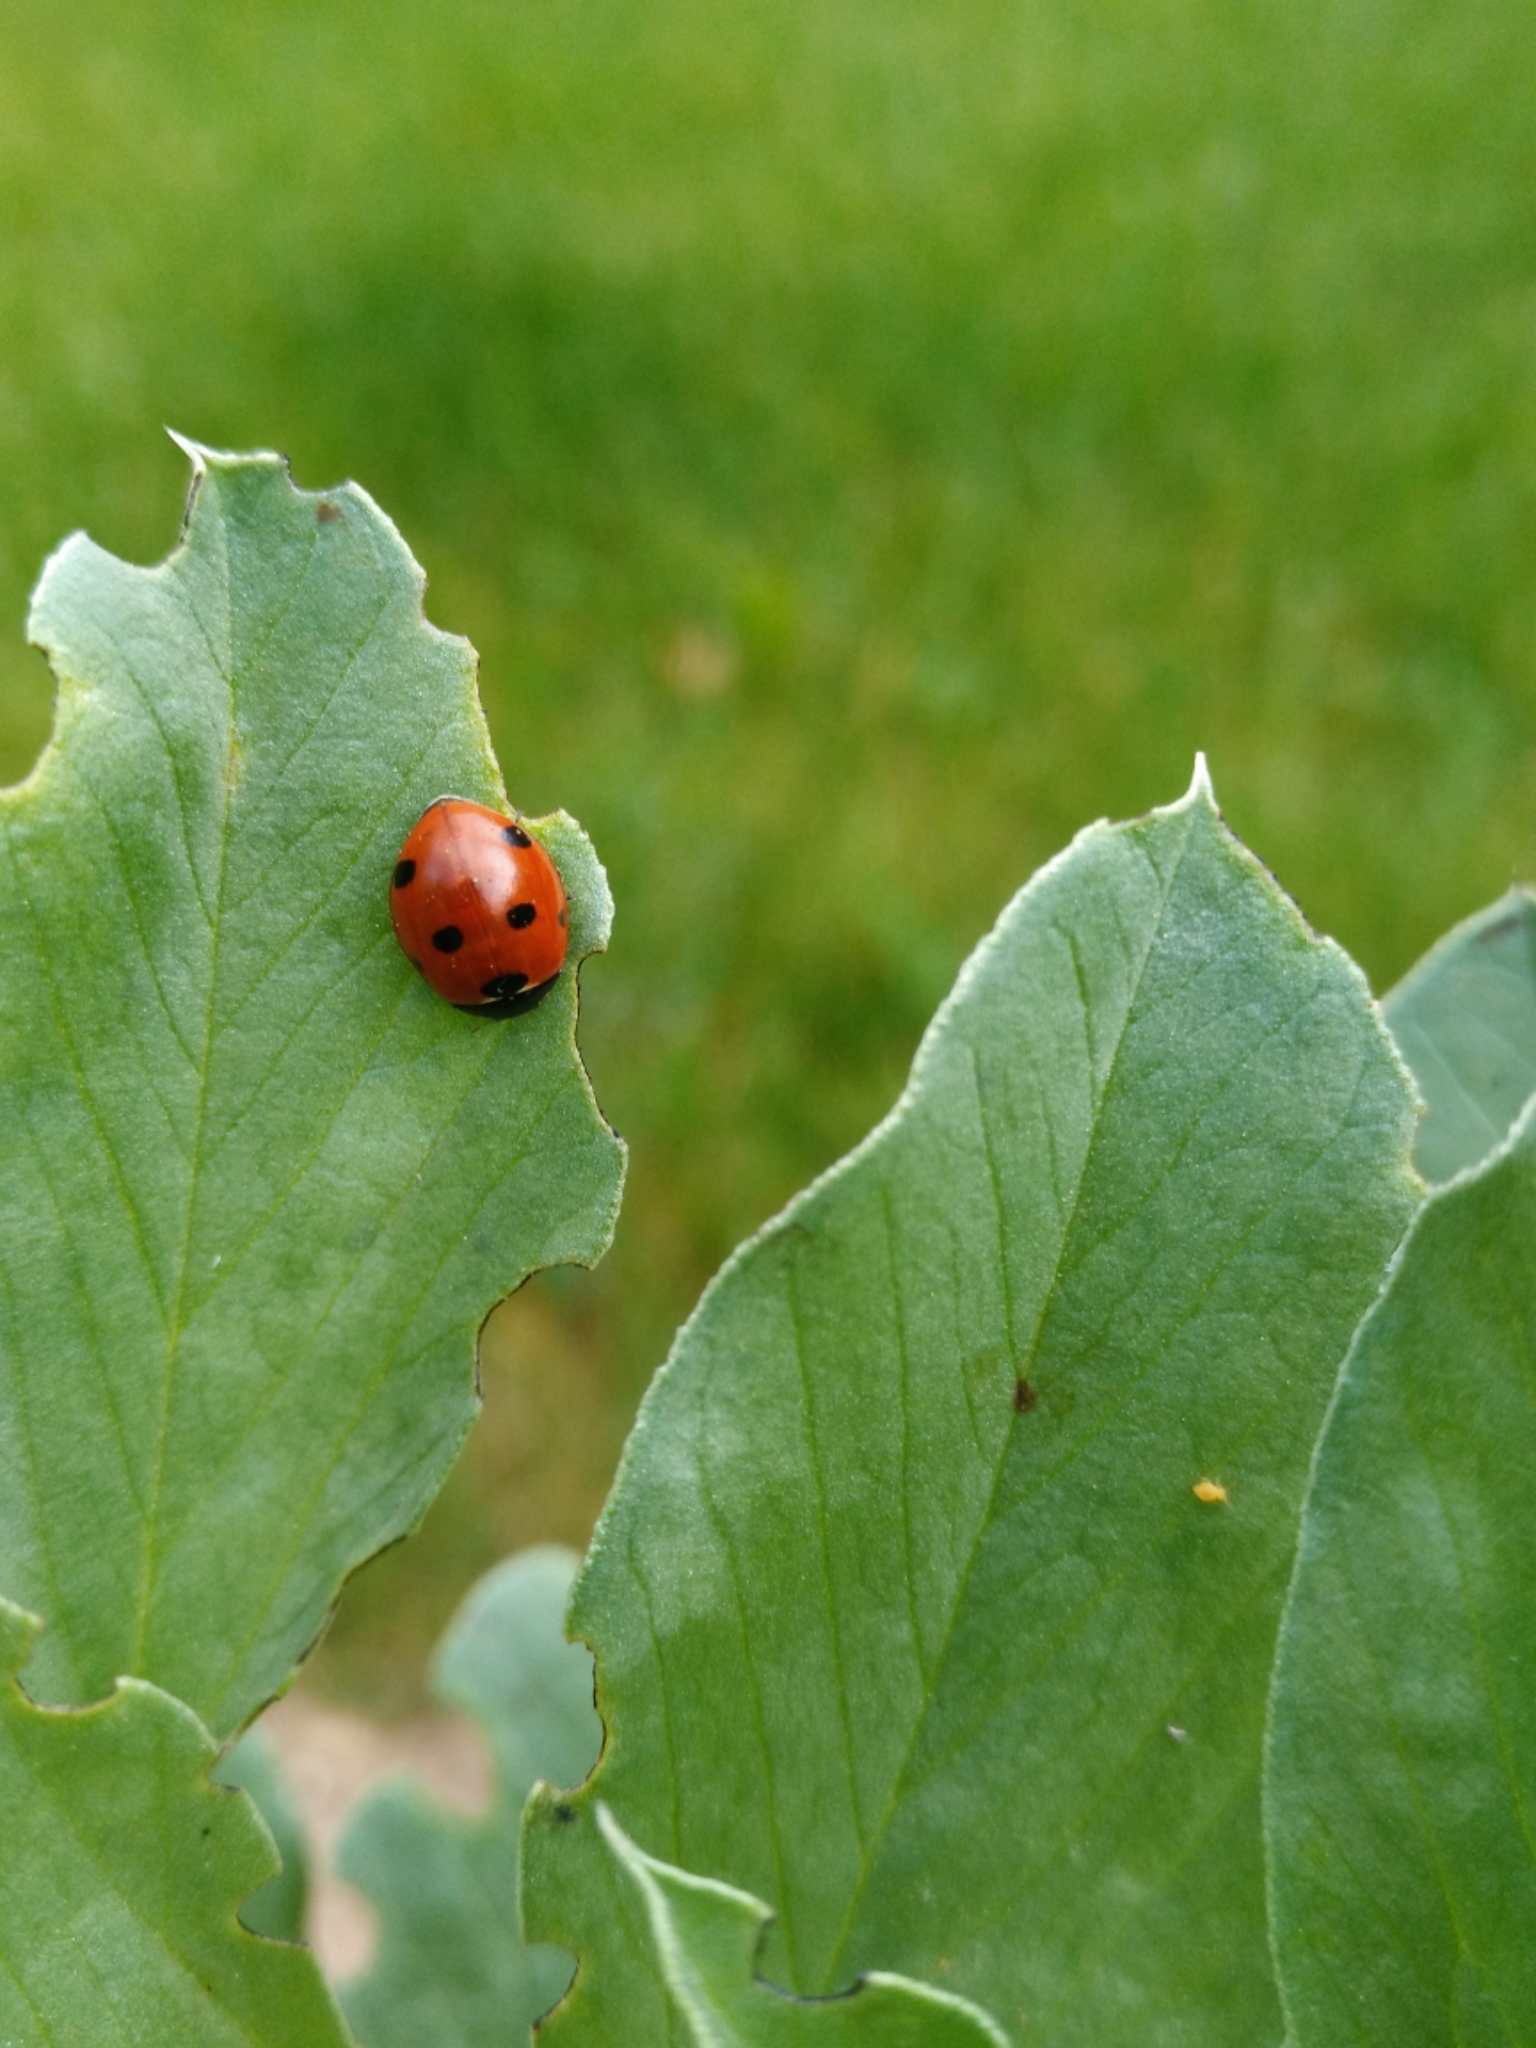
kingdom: Animalia
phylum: Arthropoda
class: Insecta
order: Coleoptera
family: Coccinellidae
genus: Coccinella
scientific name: Coccinella septempunctata
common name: Sevenspotted lady beetle
